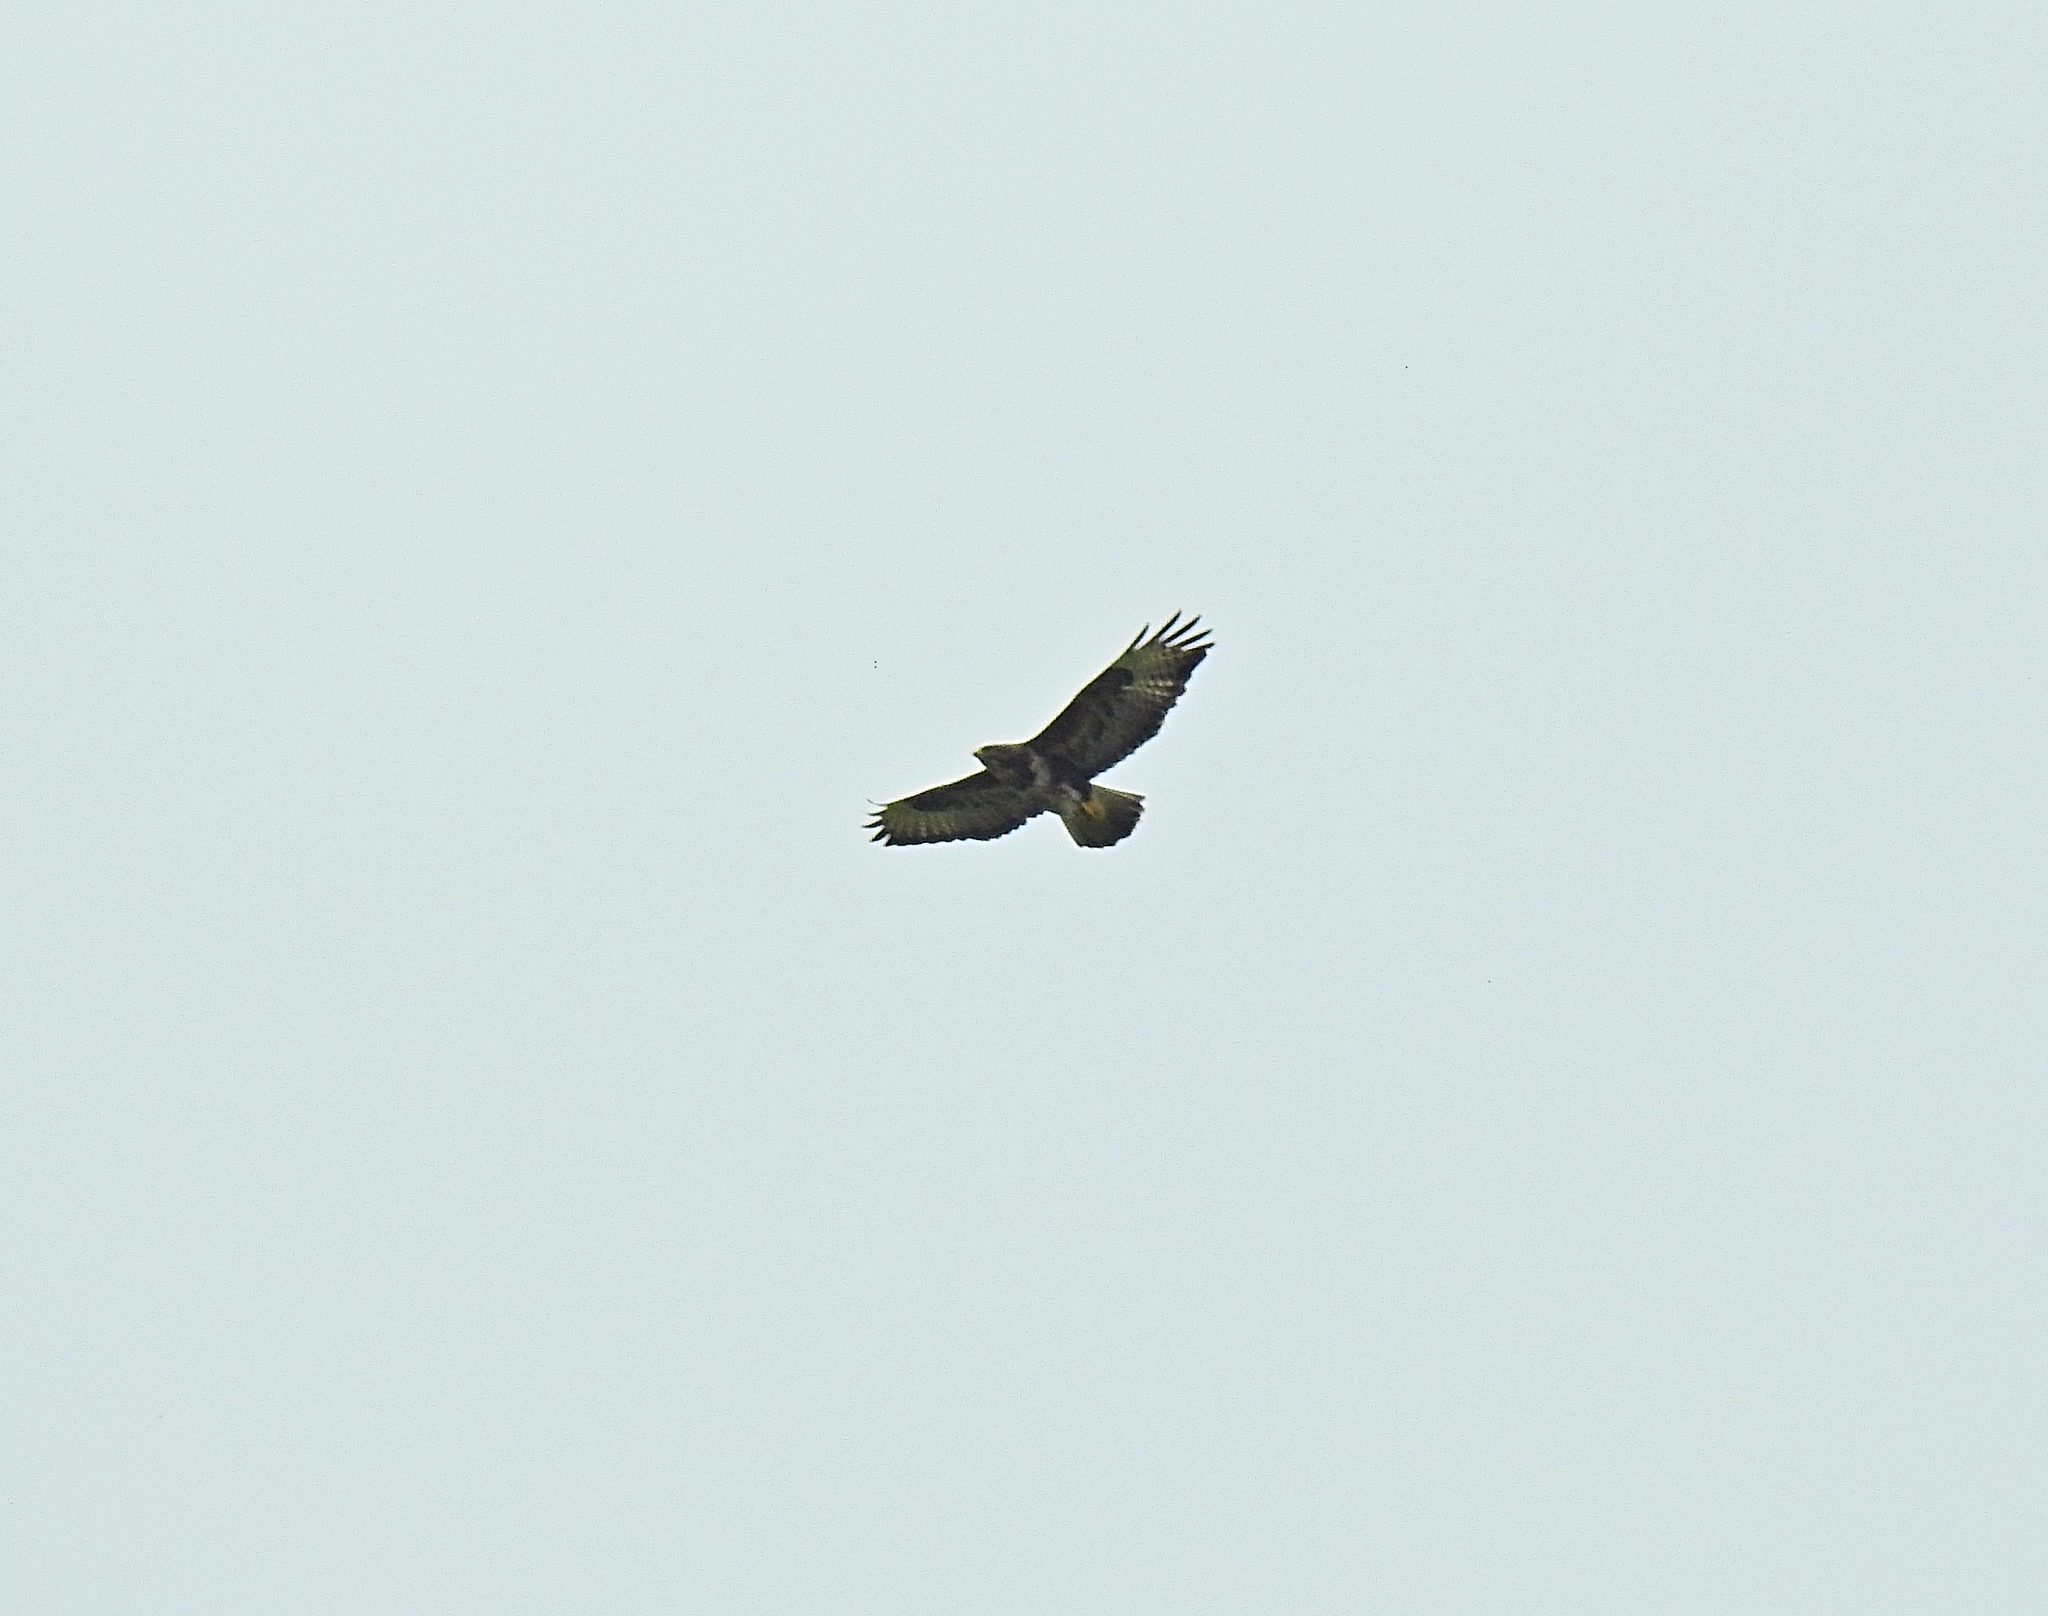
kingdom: Animalia
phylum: Chordata
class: Aves
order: Accipitriformes
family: Accipitridae
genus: Buteo
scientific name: Buteo buteo
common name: Common buzzard
